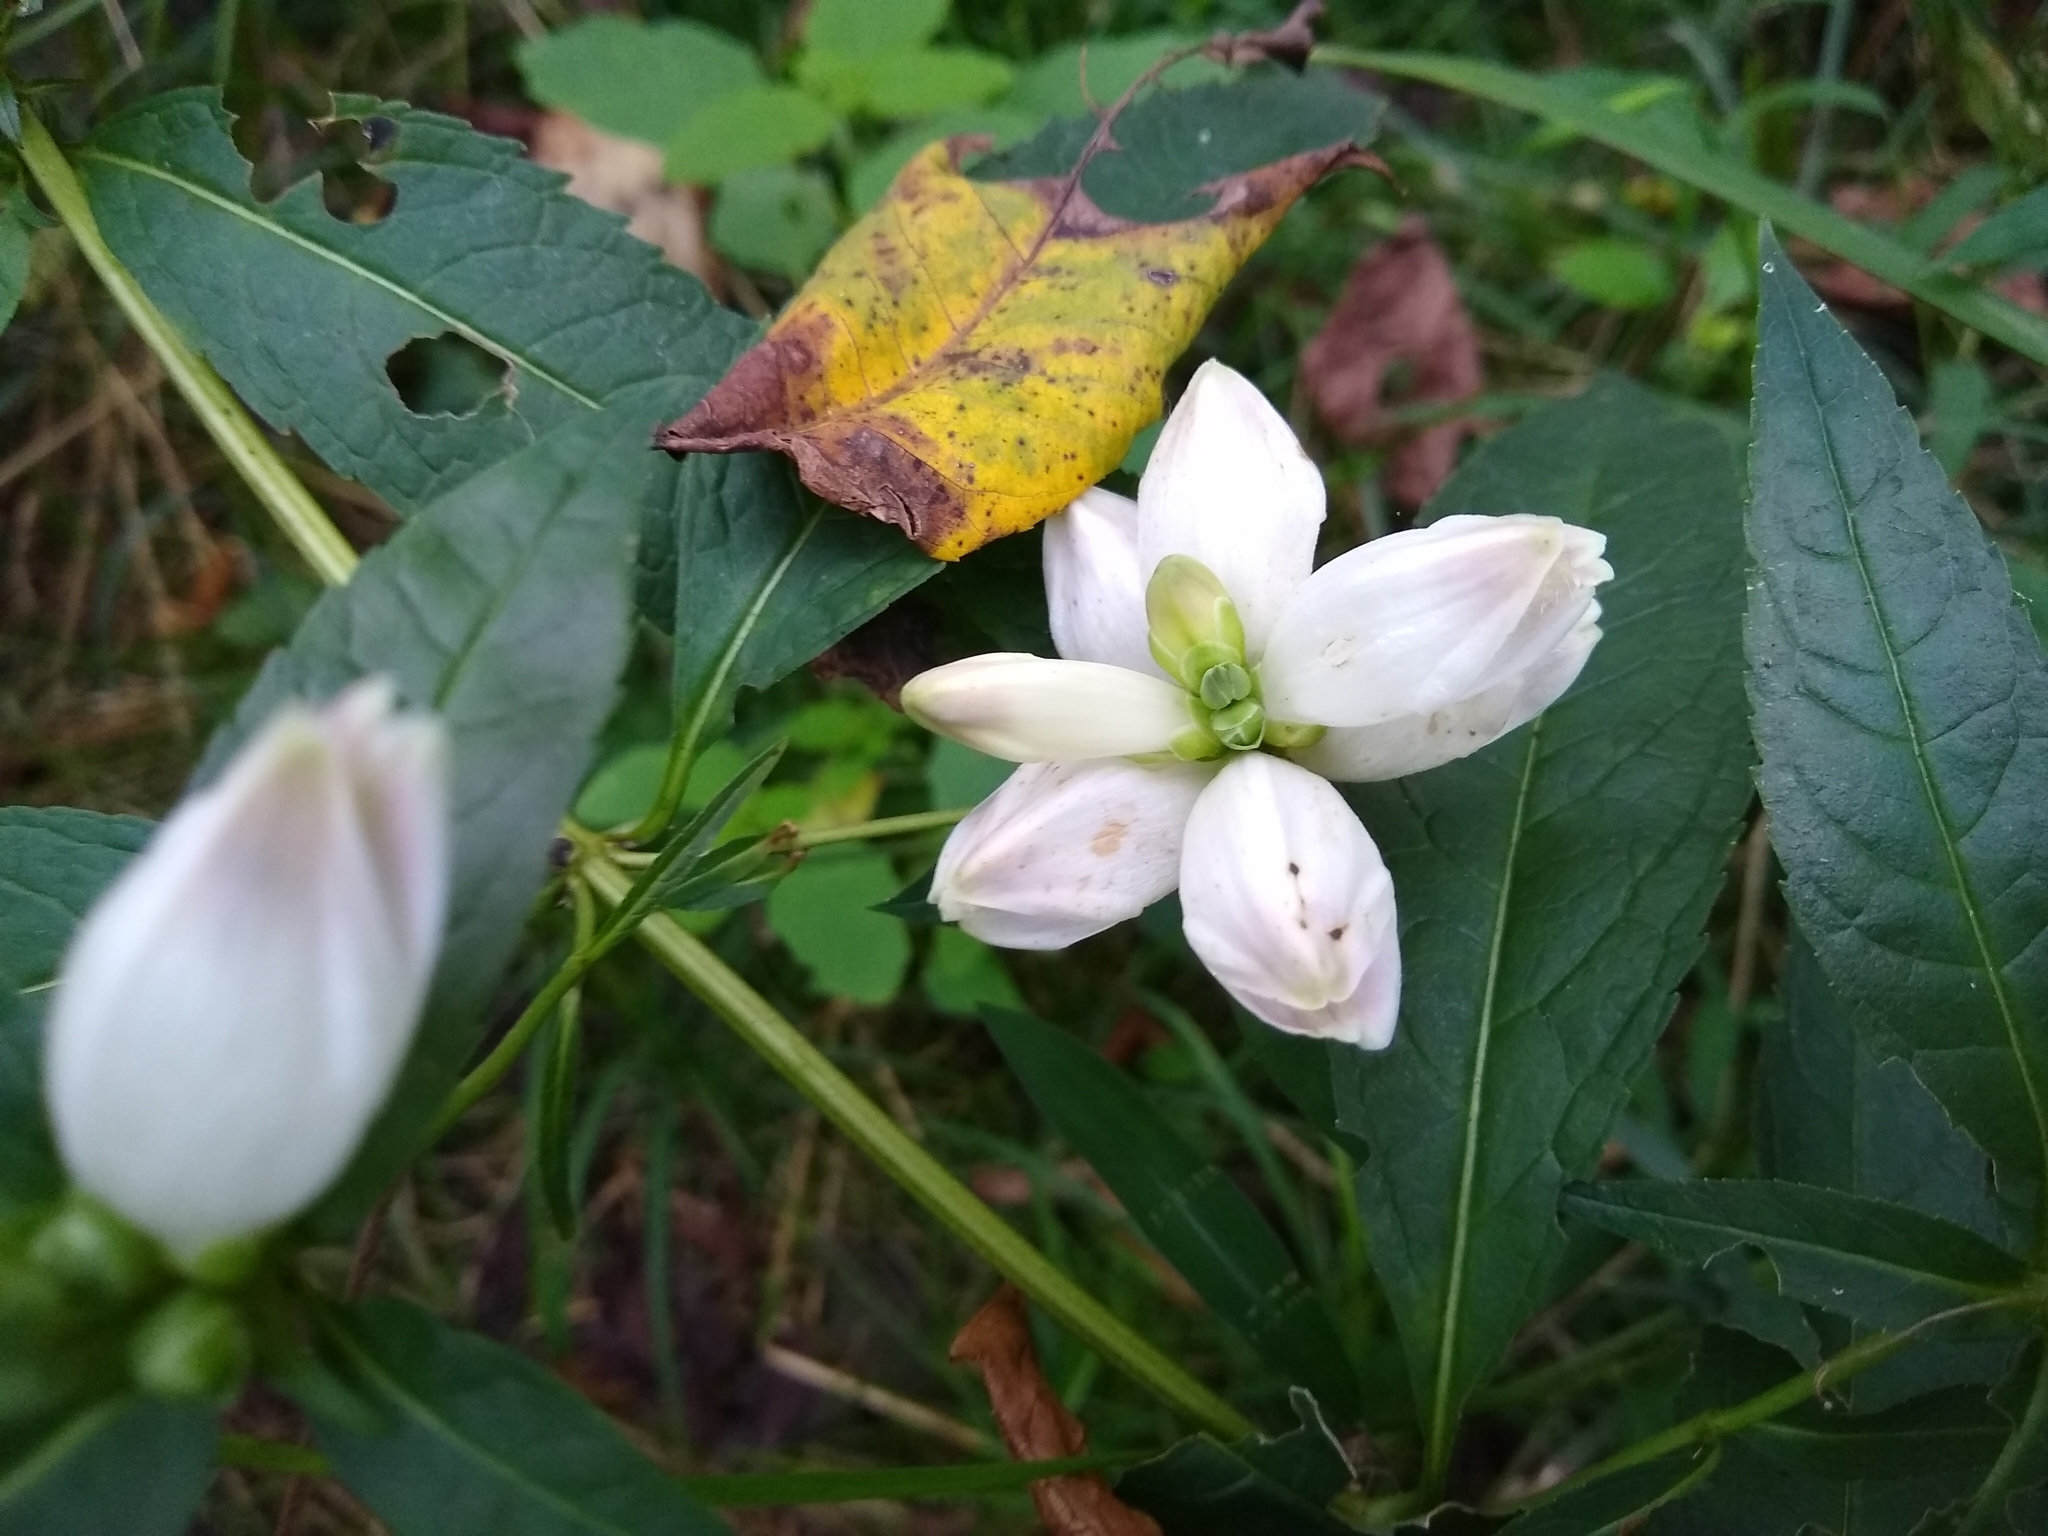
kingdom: Plantae
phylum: Tracheophyta
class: Magnoliopsida
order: Lamiales
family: Plantaginaceae
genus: Chelone
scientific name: Chelone glabra
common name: Snakehead
